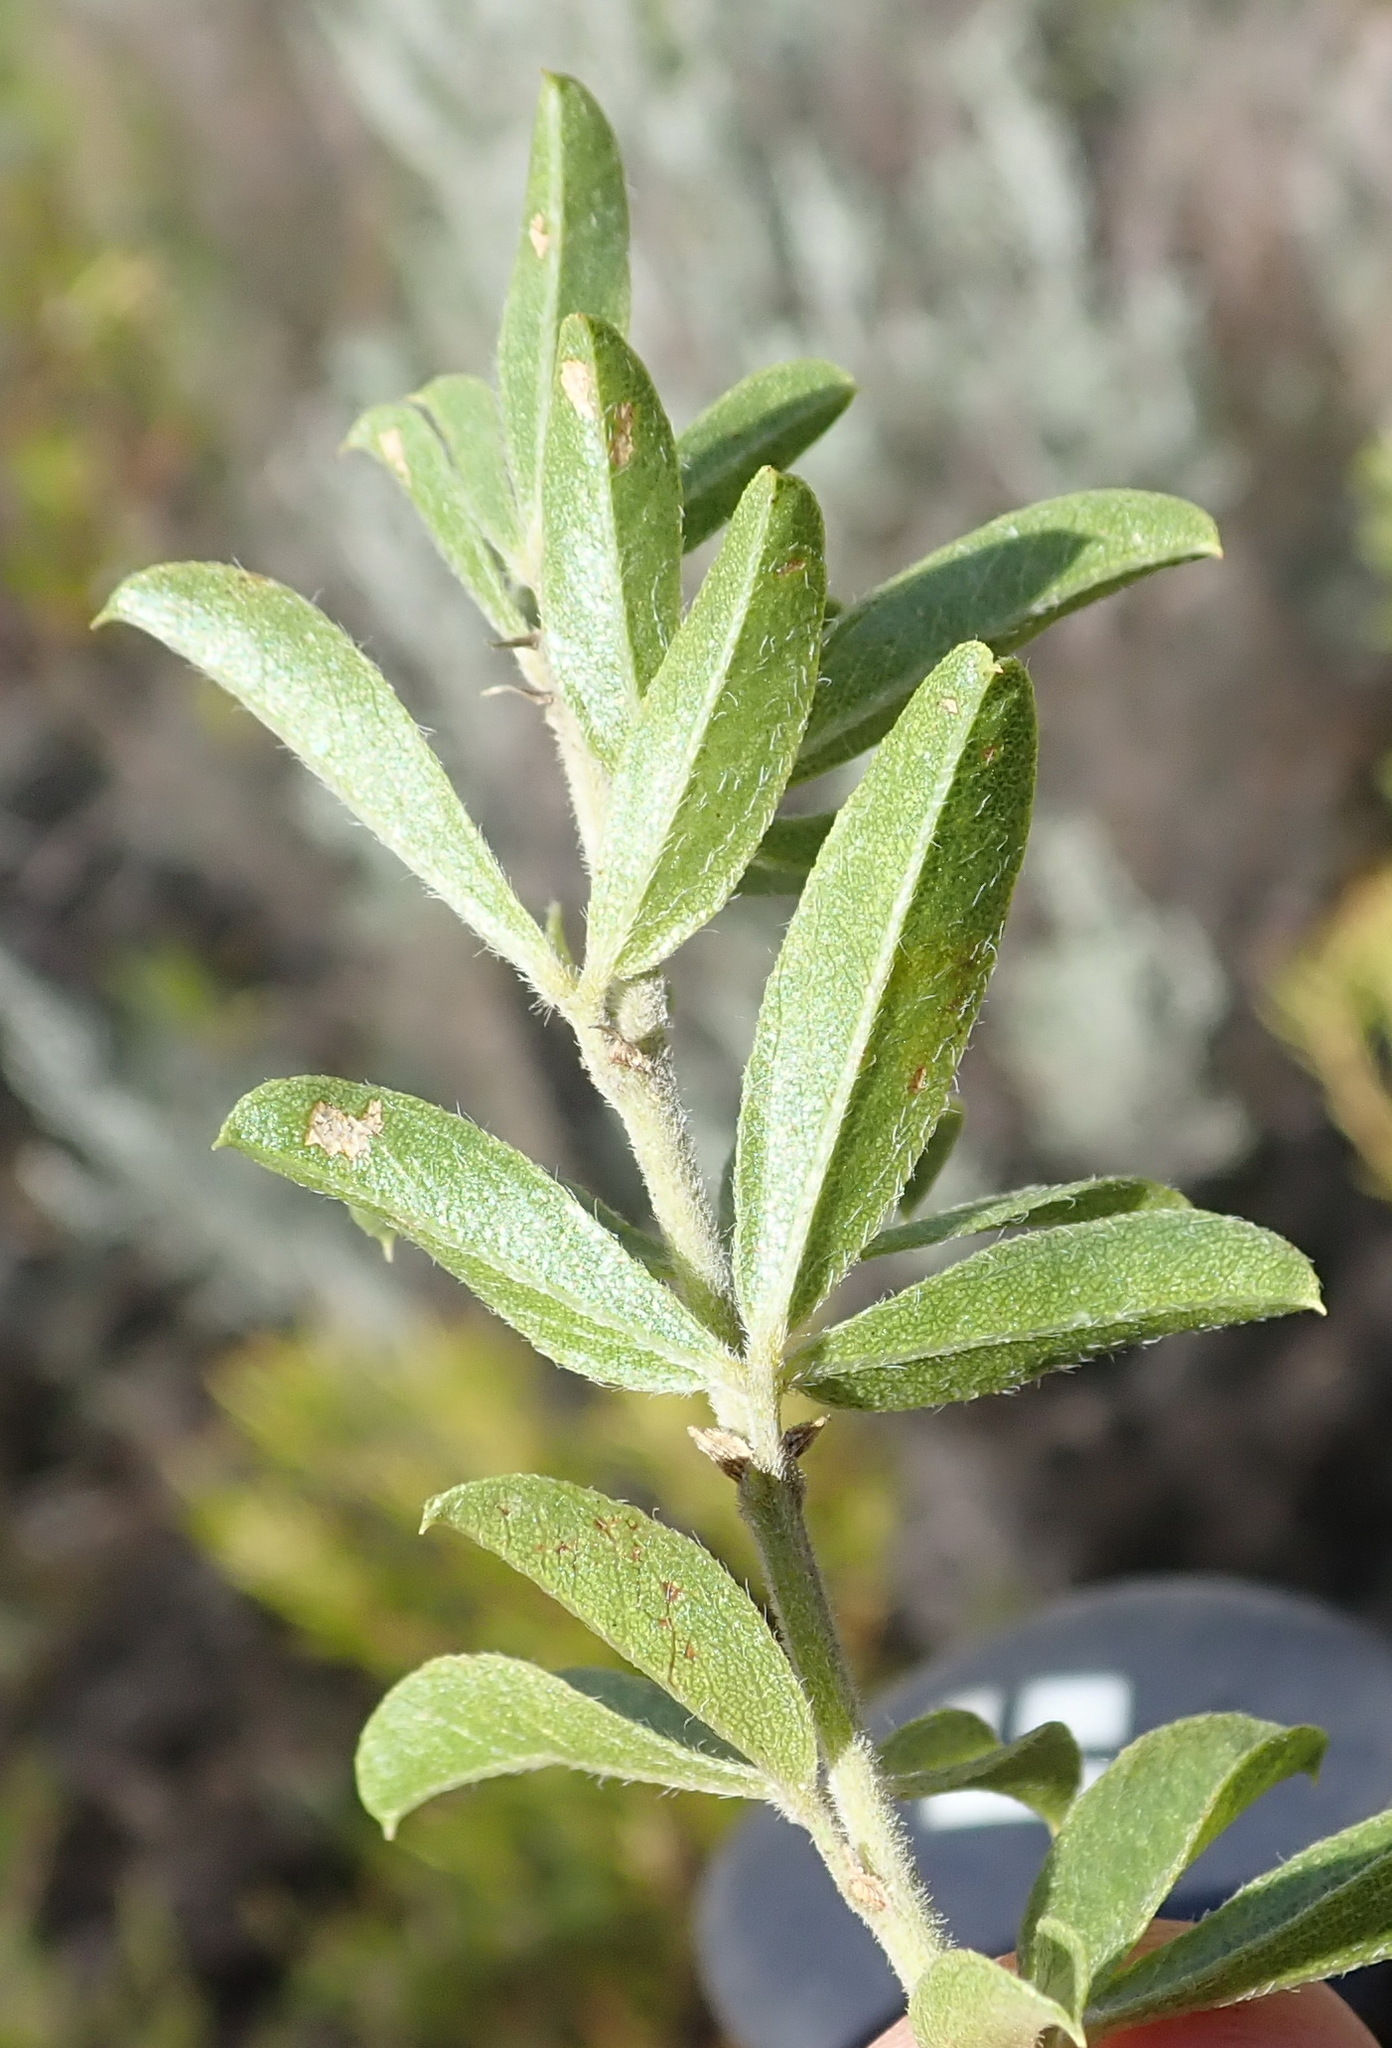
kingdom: Plantae
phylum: Tracheophyta
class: Magnoliopsida
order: Fabales
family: Fabaceae
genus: Psoralea
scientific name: Psoralea prodiens
